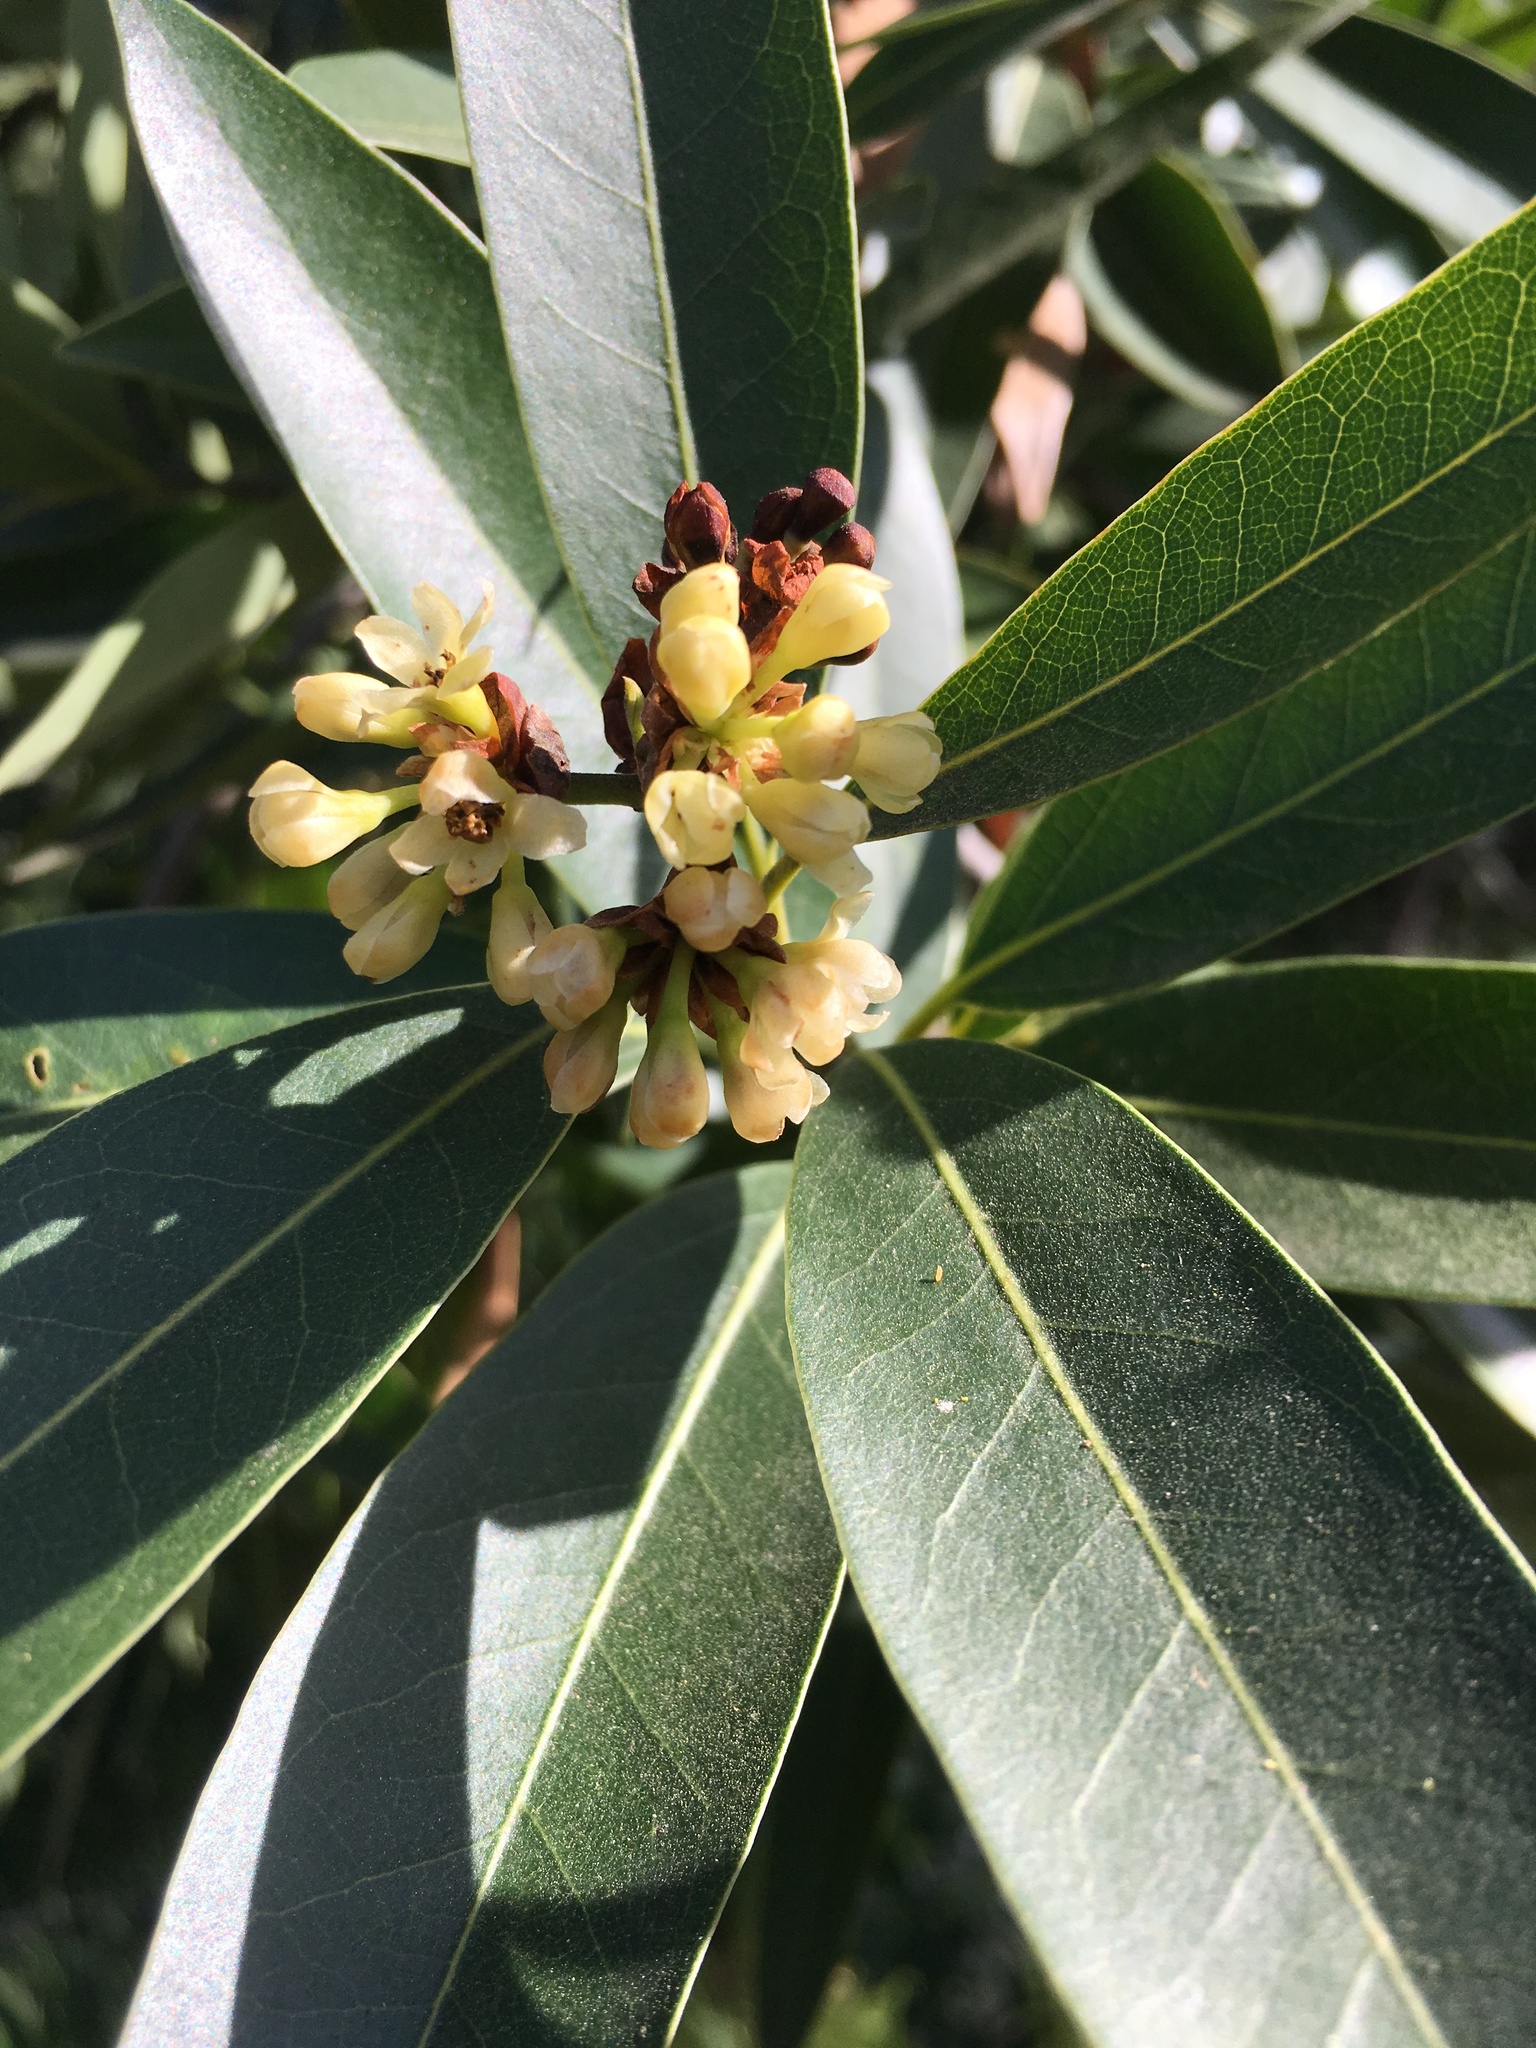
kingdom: Plantae
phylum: Tracheophyta
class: Magnoliopsida
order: Laurales
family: Lauraceae
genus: Umbellularia
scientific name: Umbellularia californica
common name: California bay
